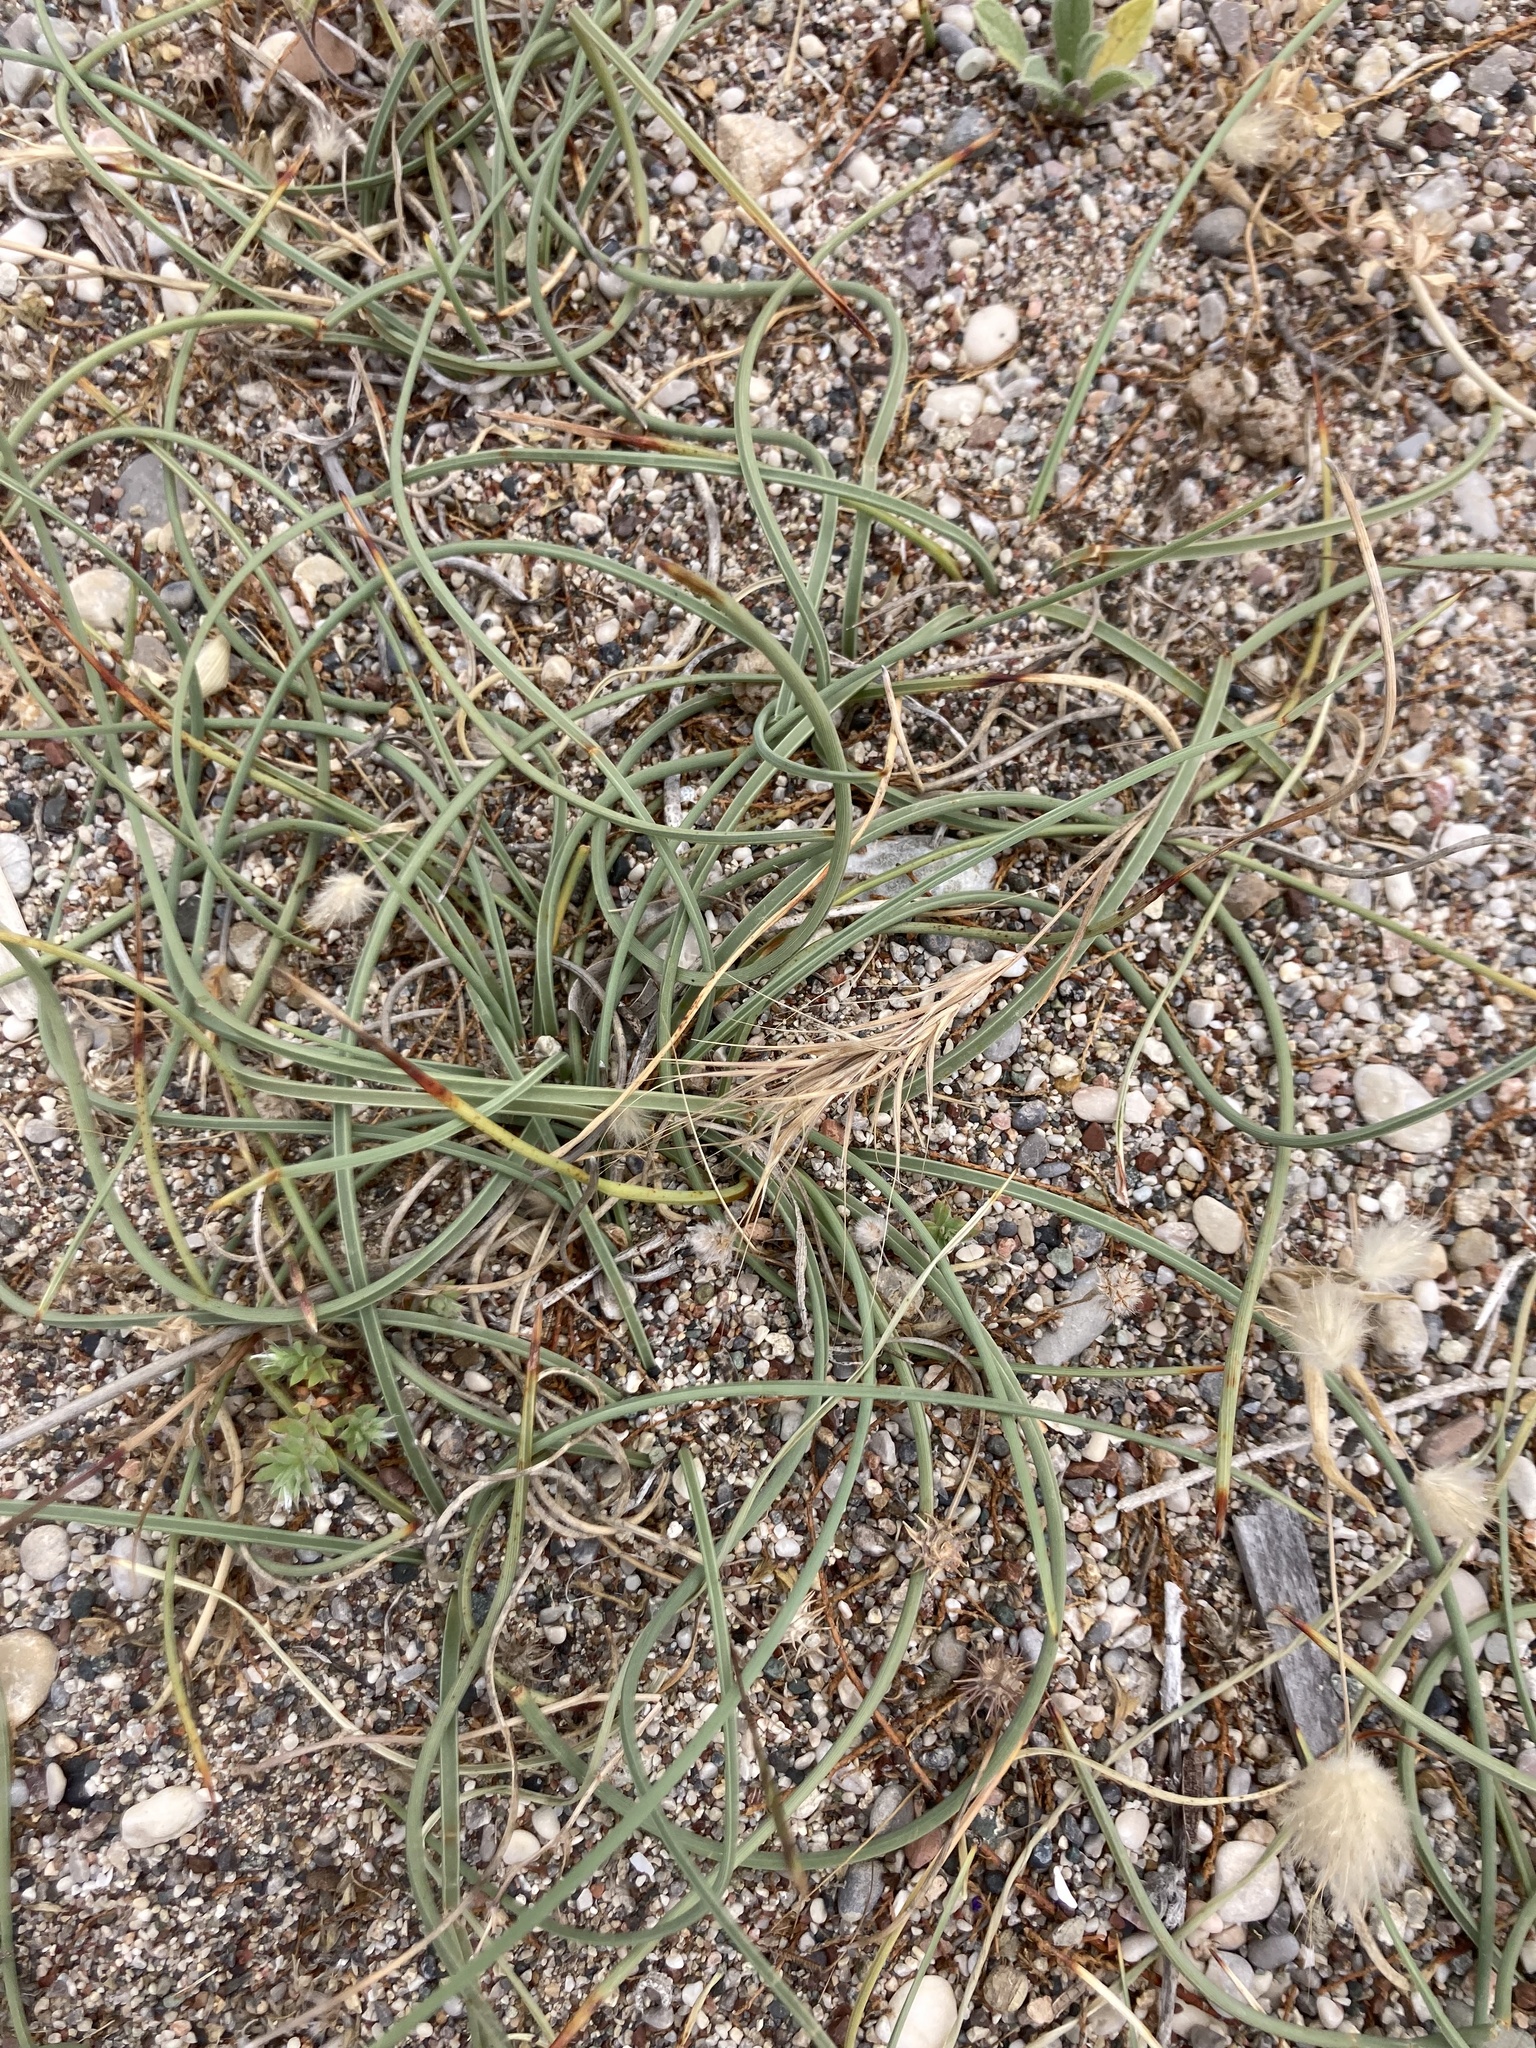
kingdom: Plantae
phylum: Tracheophyta
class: Liliopsida
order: Poales
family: Cyperaceae
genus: Cyperus
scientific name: Cyperus capitatus
